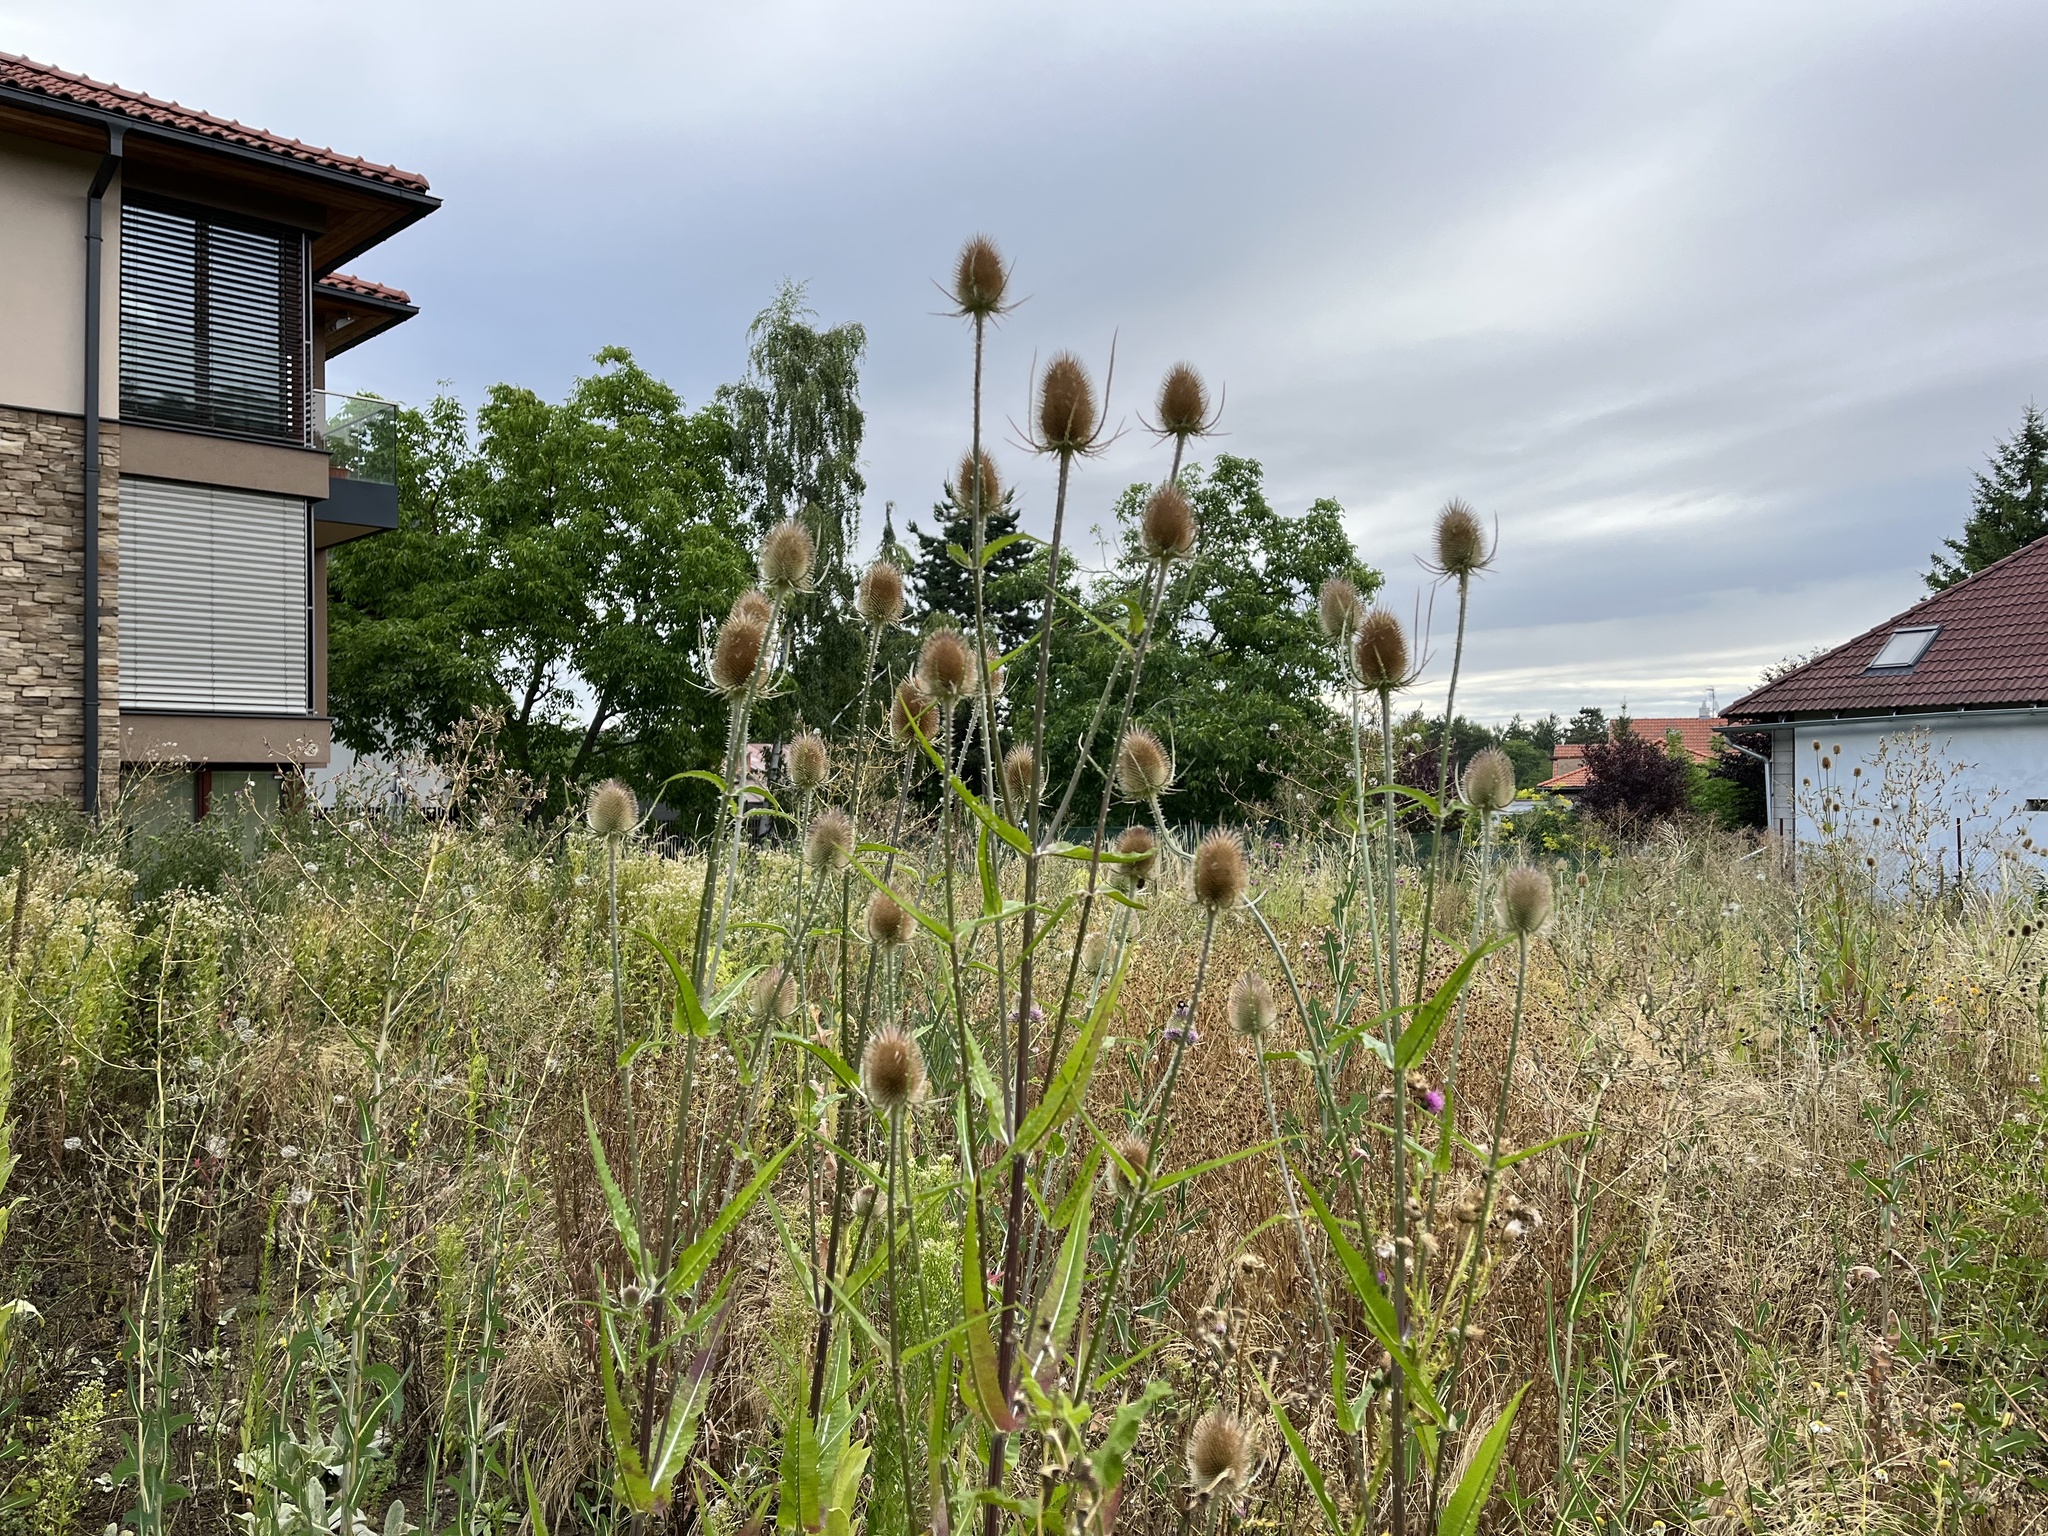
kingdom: Plantae
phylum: Tracheophyta
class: Magnoliopsida
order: Dipsacales
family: Caprifoliaceae
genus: Dipsacus
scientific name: Dipsacus fullonum
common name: Teasel
